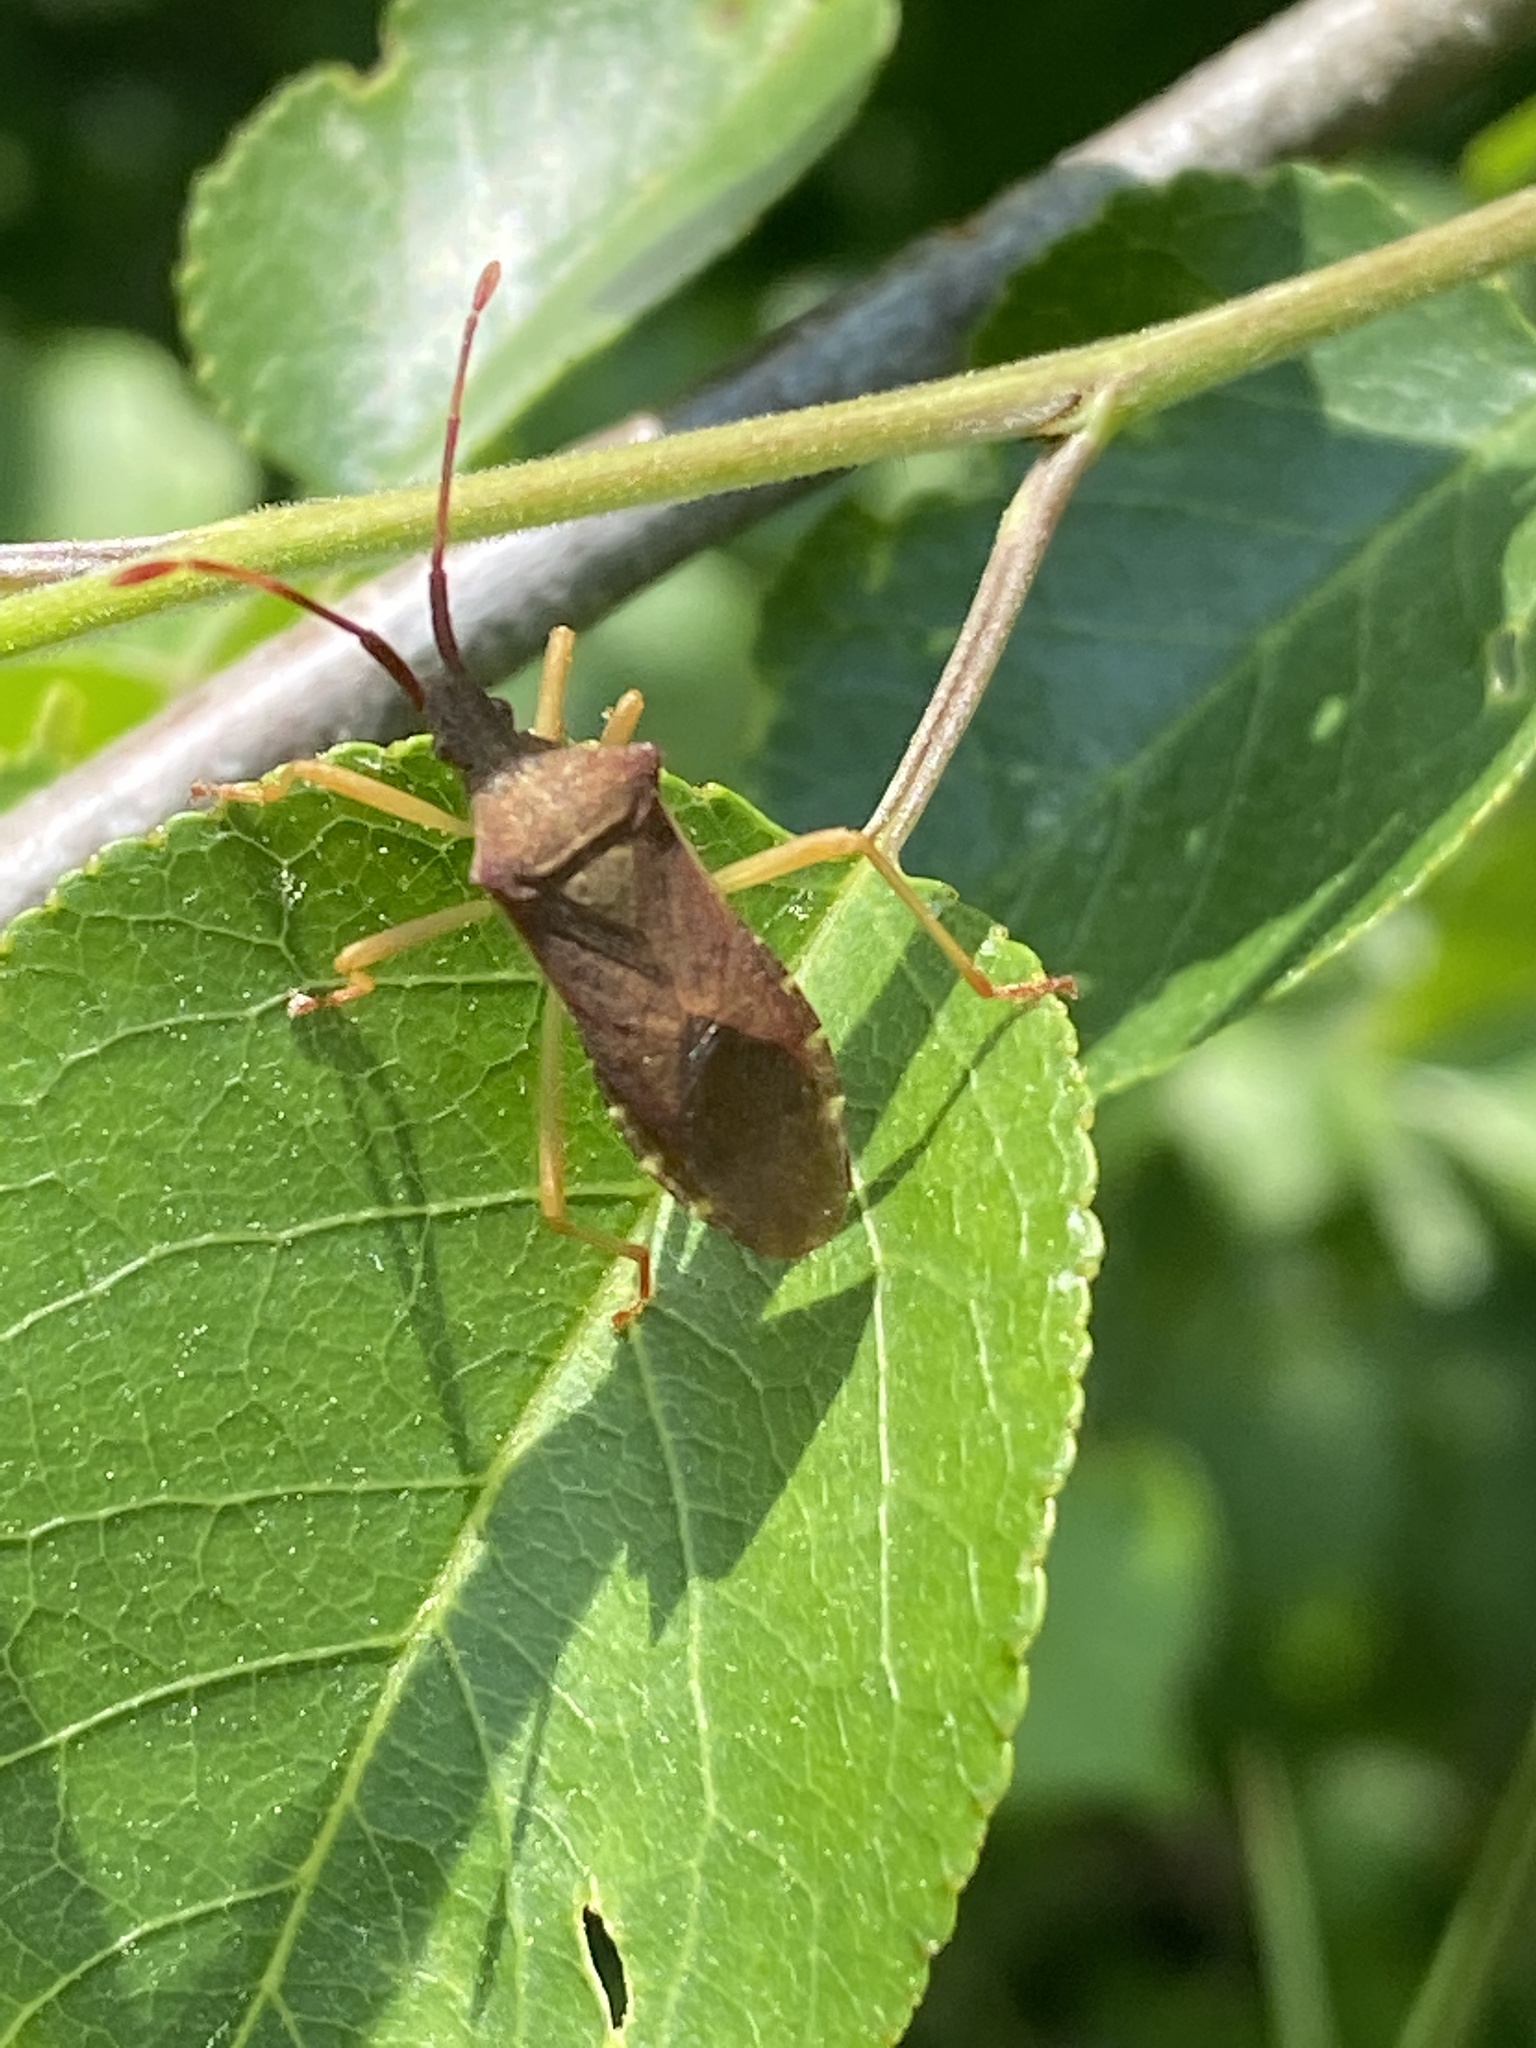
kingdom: Animalia
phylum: Arthropoda
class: Insecta
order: Hemiptera
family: Coreidae
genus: Gonocerus
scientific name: Gonocerus acuteangulatus
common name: Box bug
